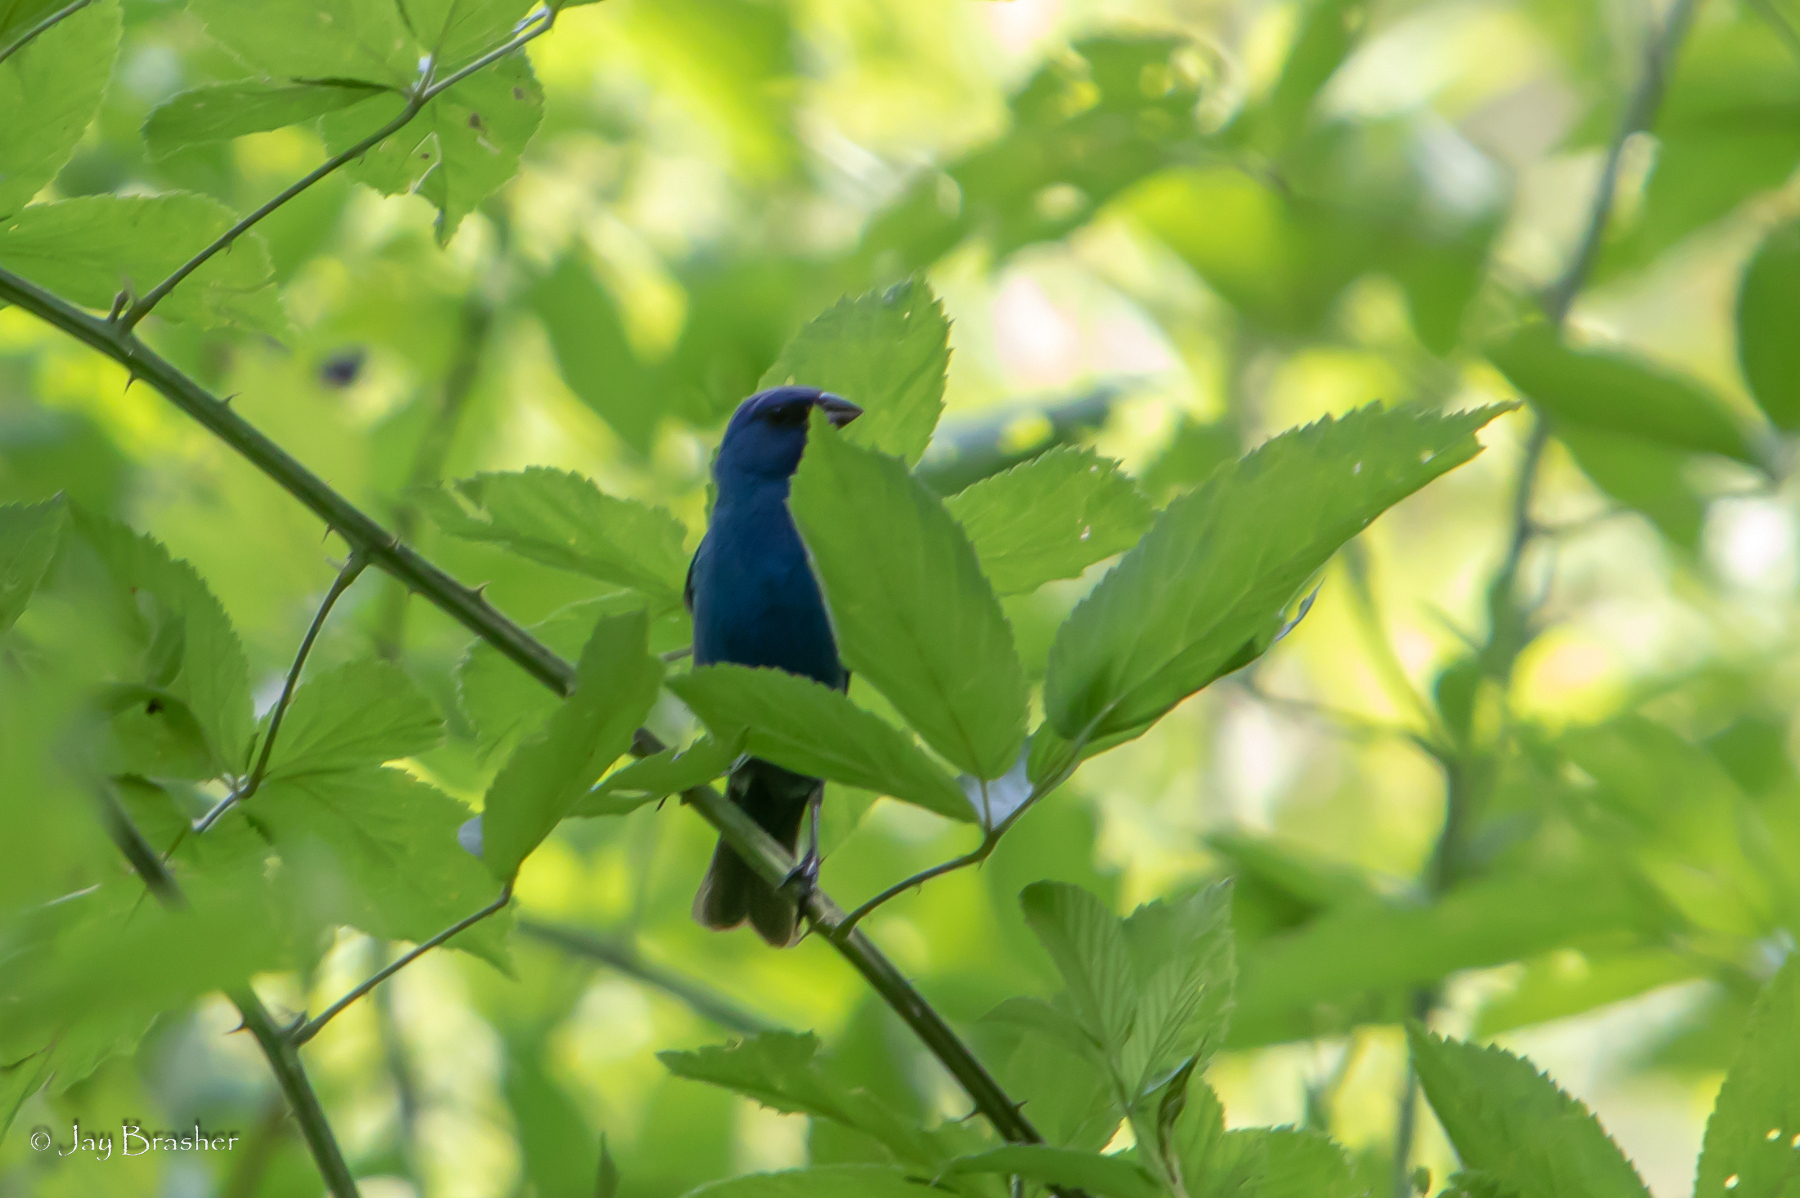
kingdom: Animalia
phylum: Chordata
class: Aves
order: Passeriformes
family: Cardinalidae
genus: Passerina
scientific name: Passerina cyanea
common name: Indigo bunting
